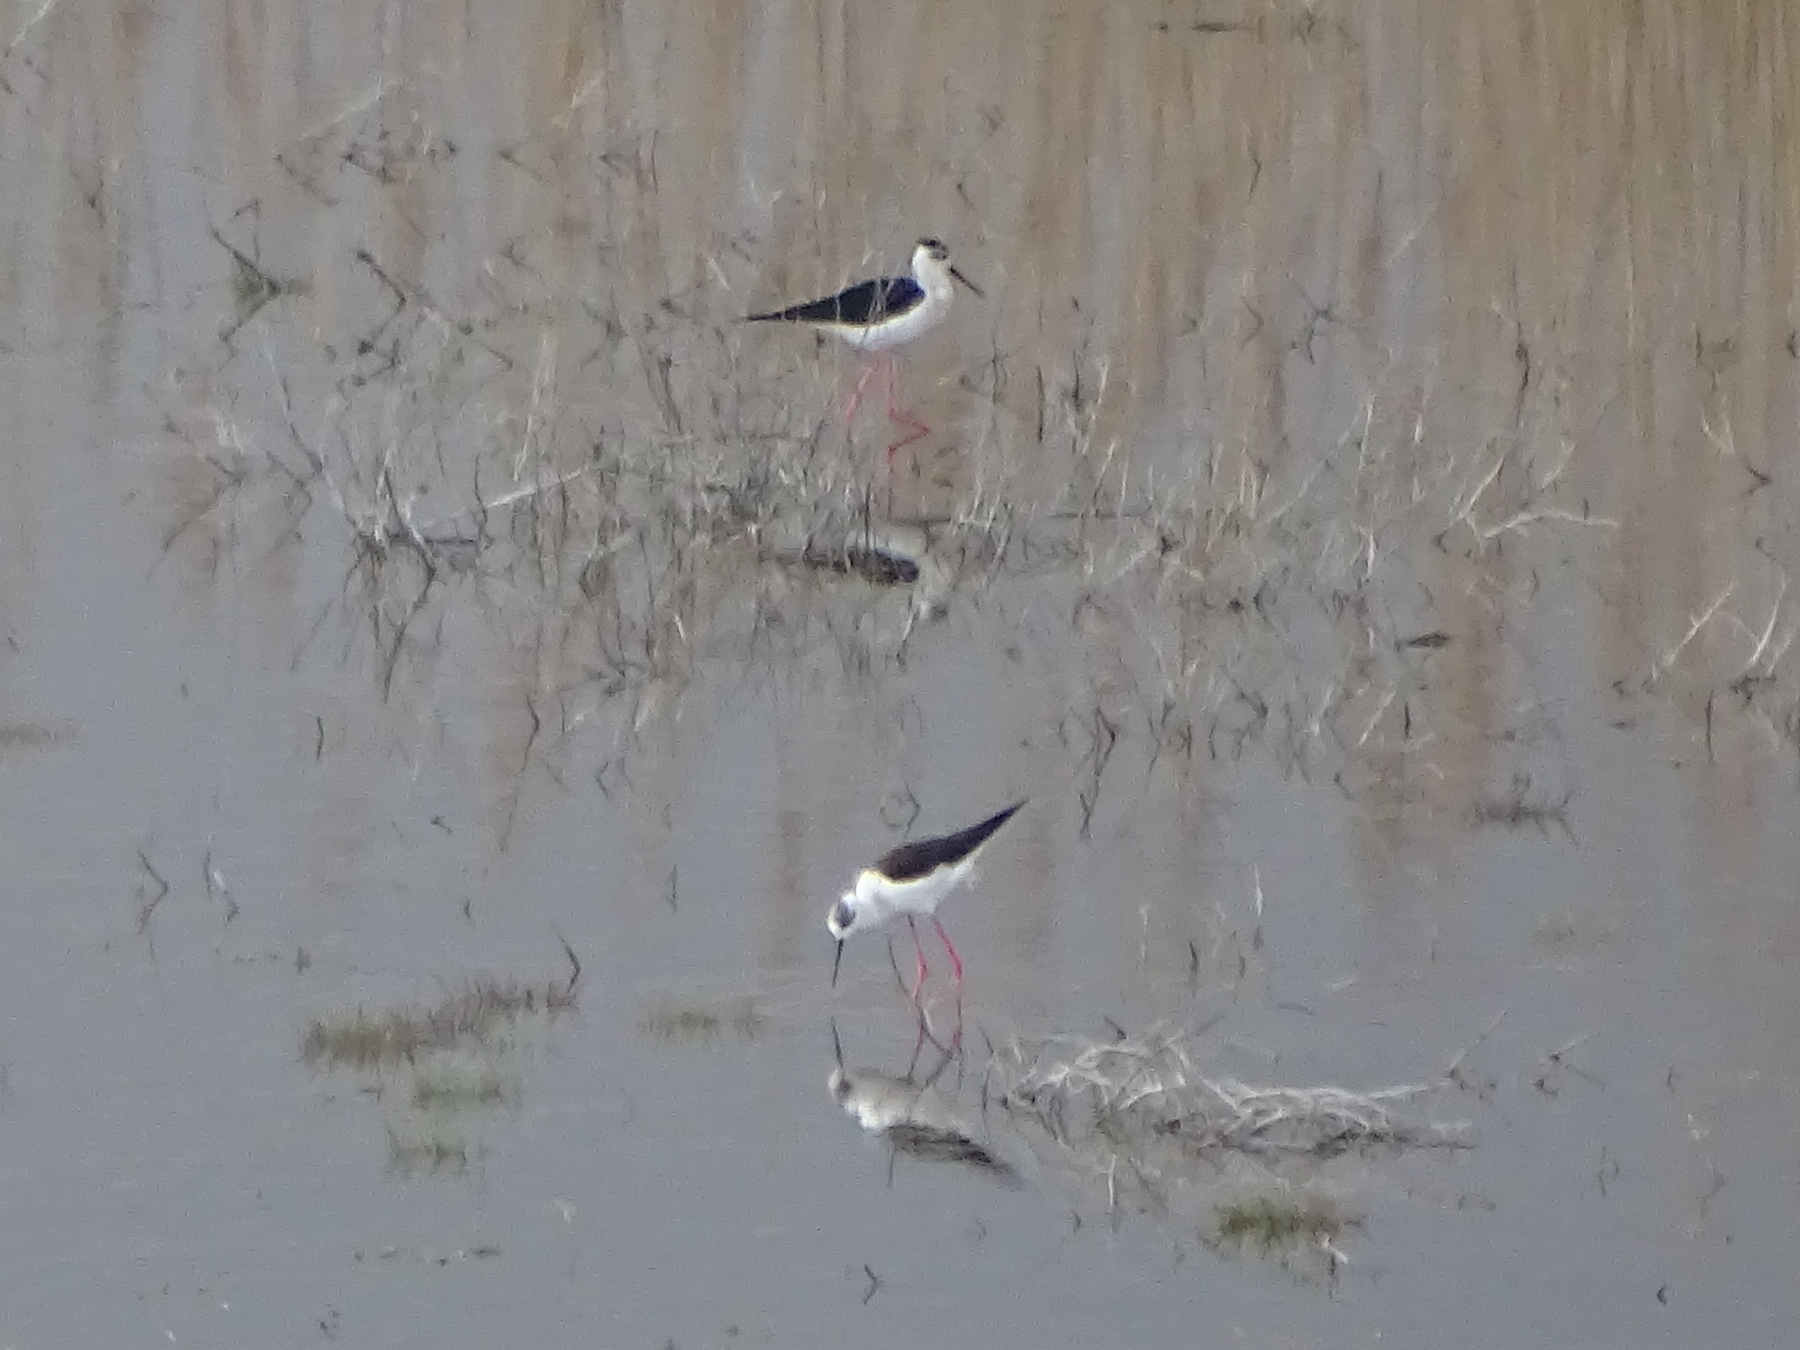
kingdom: Animalia
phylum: Chordata
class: Aves
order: Charadriiformes
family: Recurvirostridae
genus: Himantopus
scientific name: Himantopus himantopus
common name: Black-winged stilt
